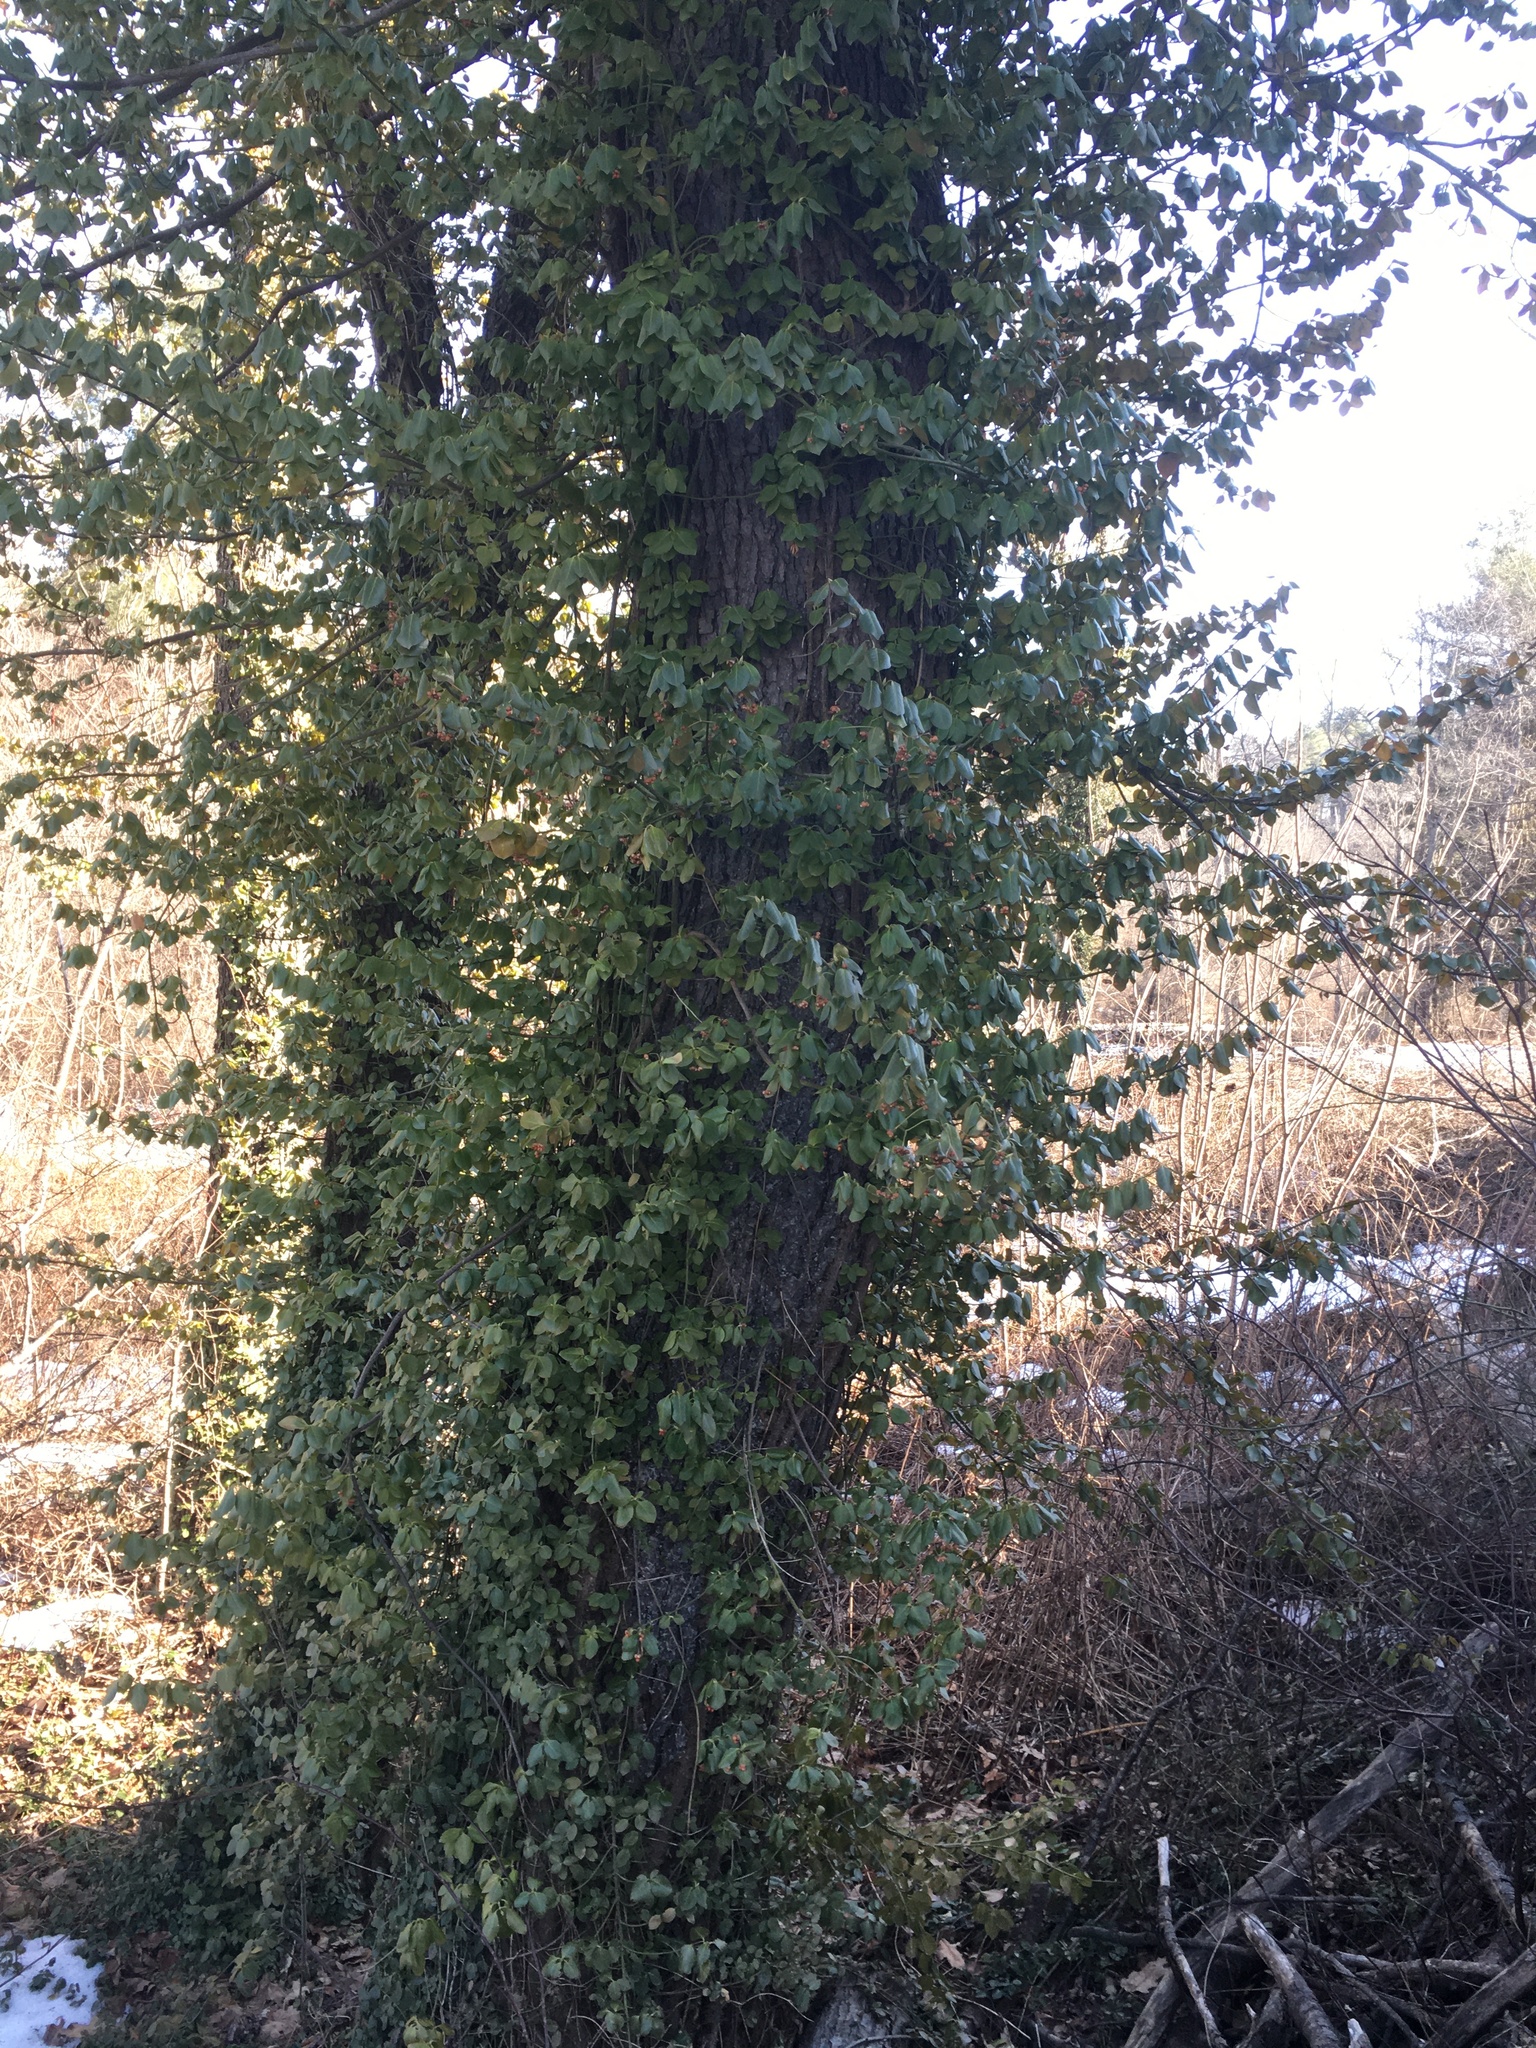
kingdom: Plantae
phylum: Tracheophyta
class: Magnoliopsida
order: Celastrales
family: Celastraceae
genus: Euonymus
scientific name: Euonymus fortunei
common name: Climbing euonymus
